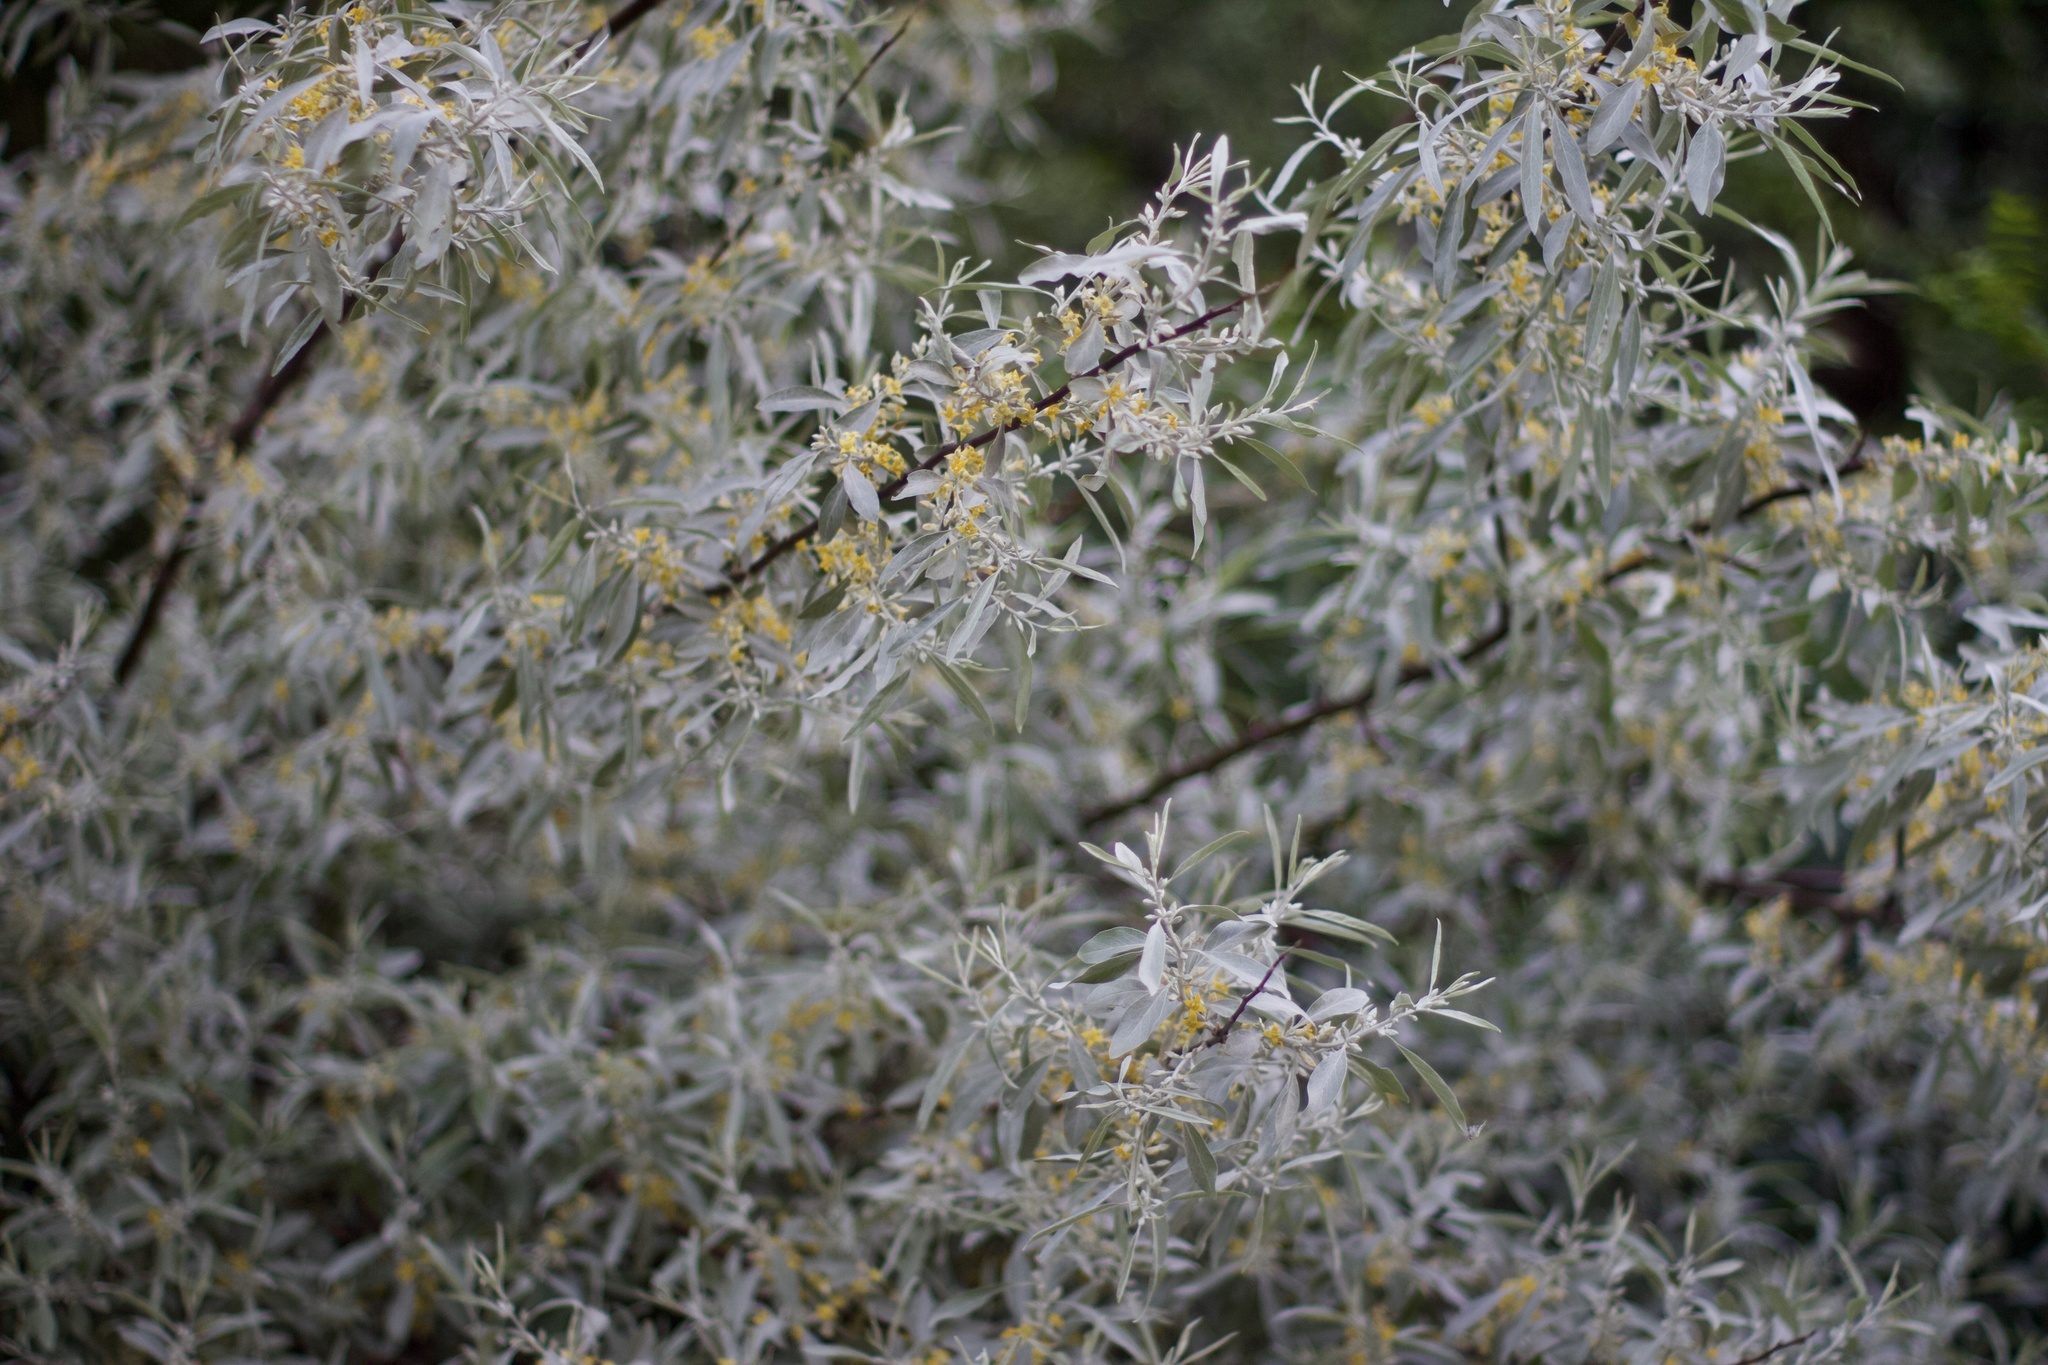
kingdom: Plantae
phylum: Tracheophyta
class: Magnoliopsida
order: Rosales
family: Elaeagnaceae
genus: Elaeagnus
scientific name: Elaeagnus angustifolia
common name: Russian olive
